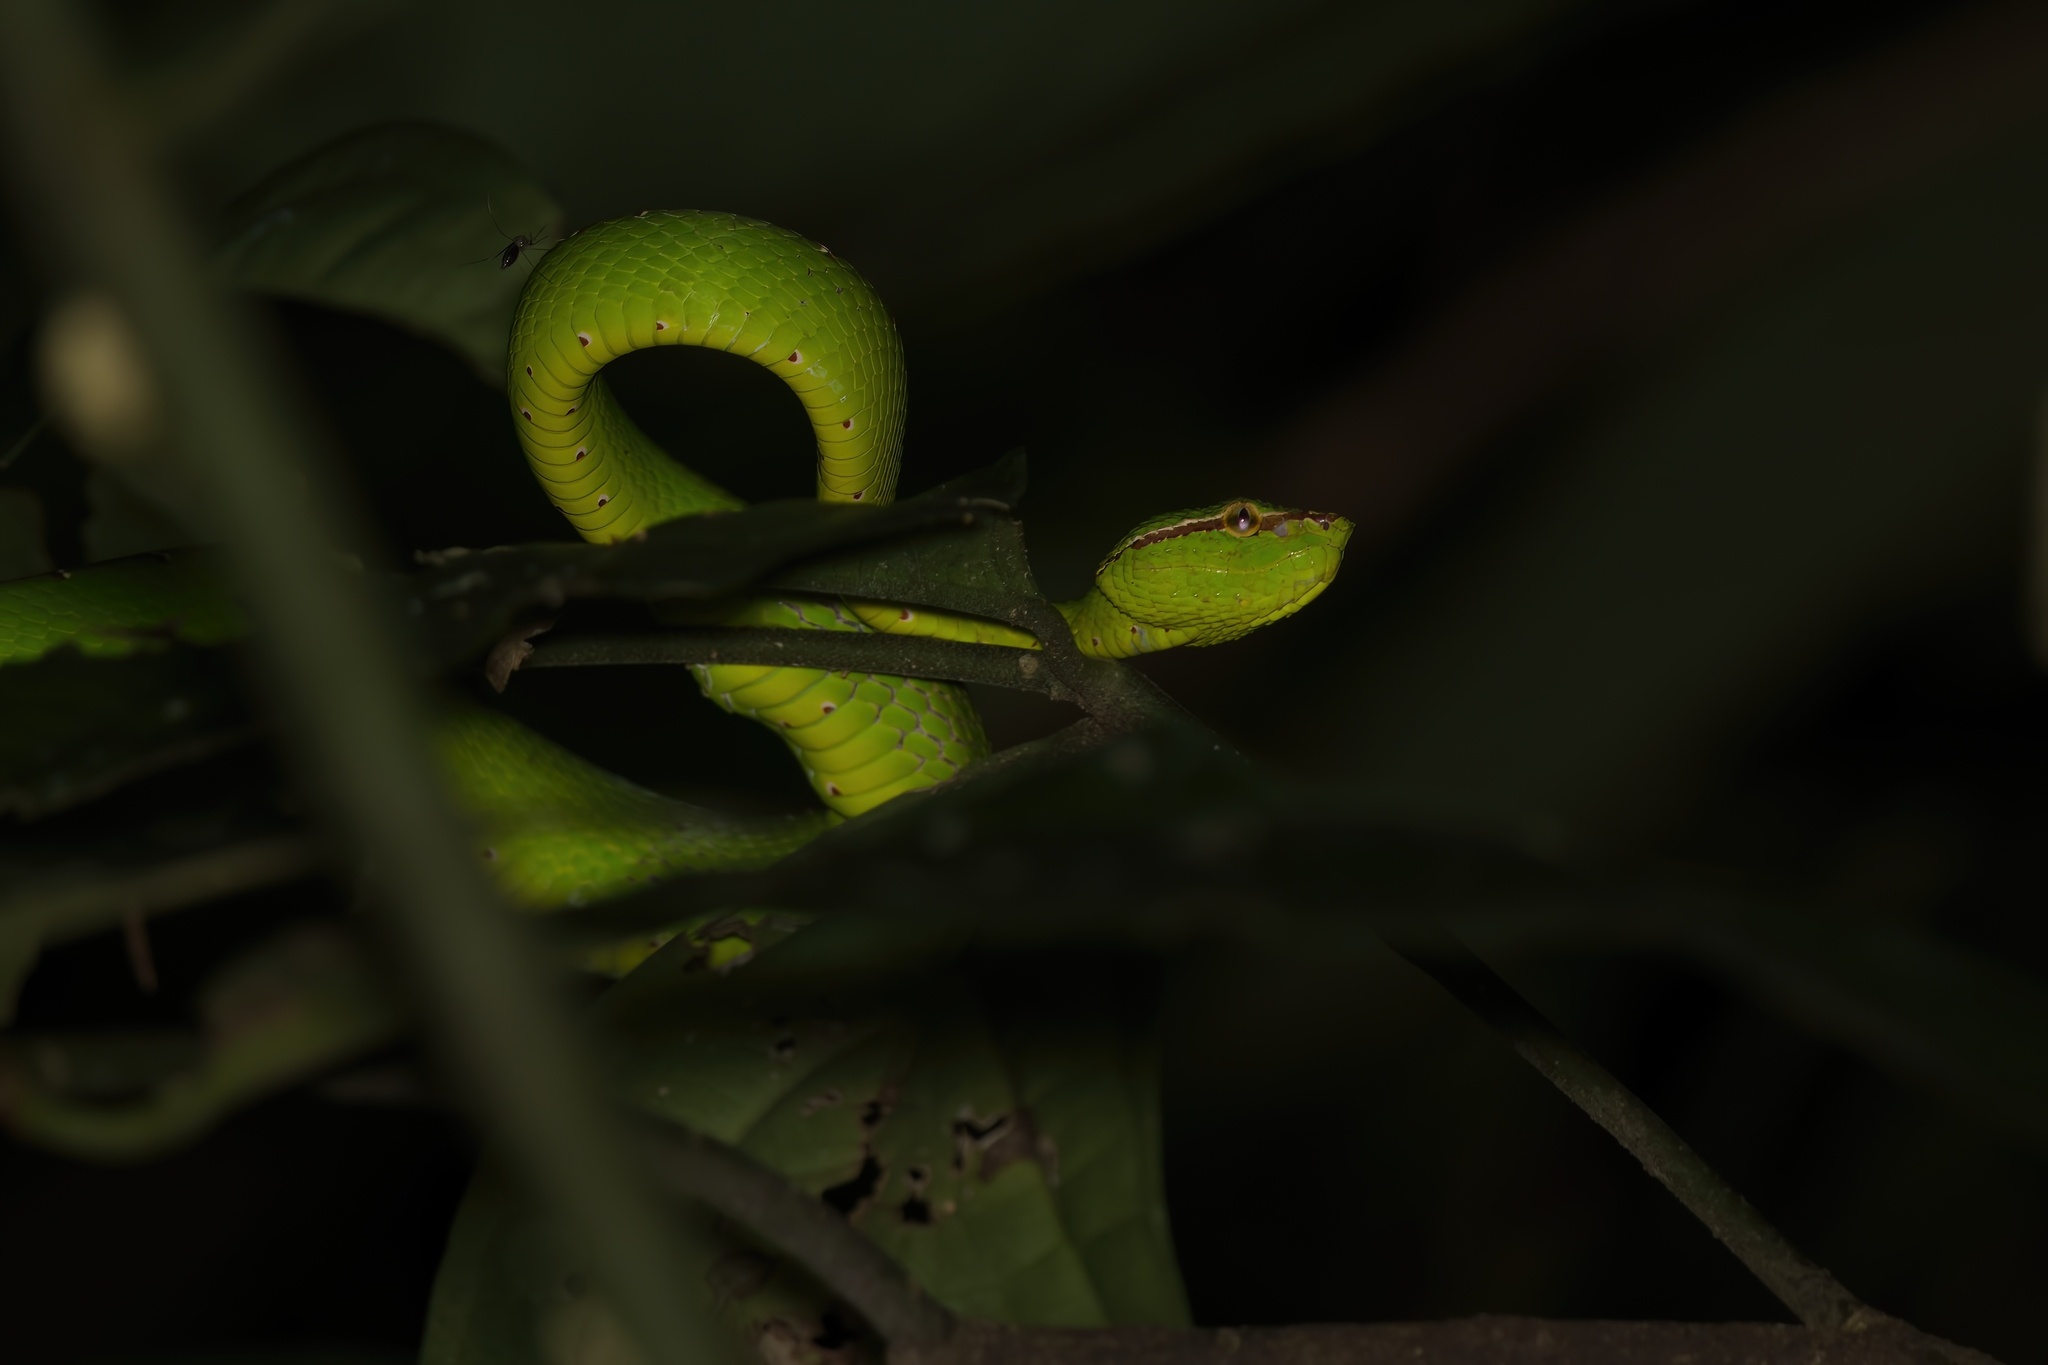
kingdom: Animalia
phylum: Chordata
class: Squamata
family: Viperidae
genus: Tropidolaemus
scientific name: Tropidolaemus subannulatus
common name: North philippine temple pitviper
